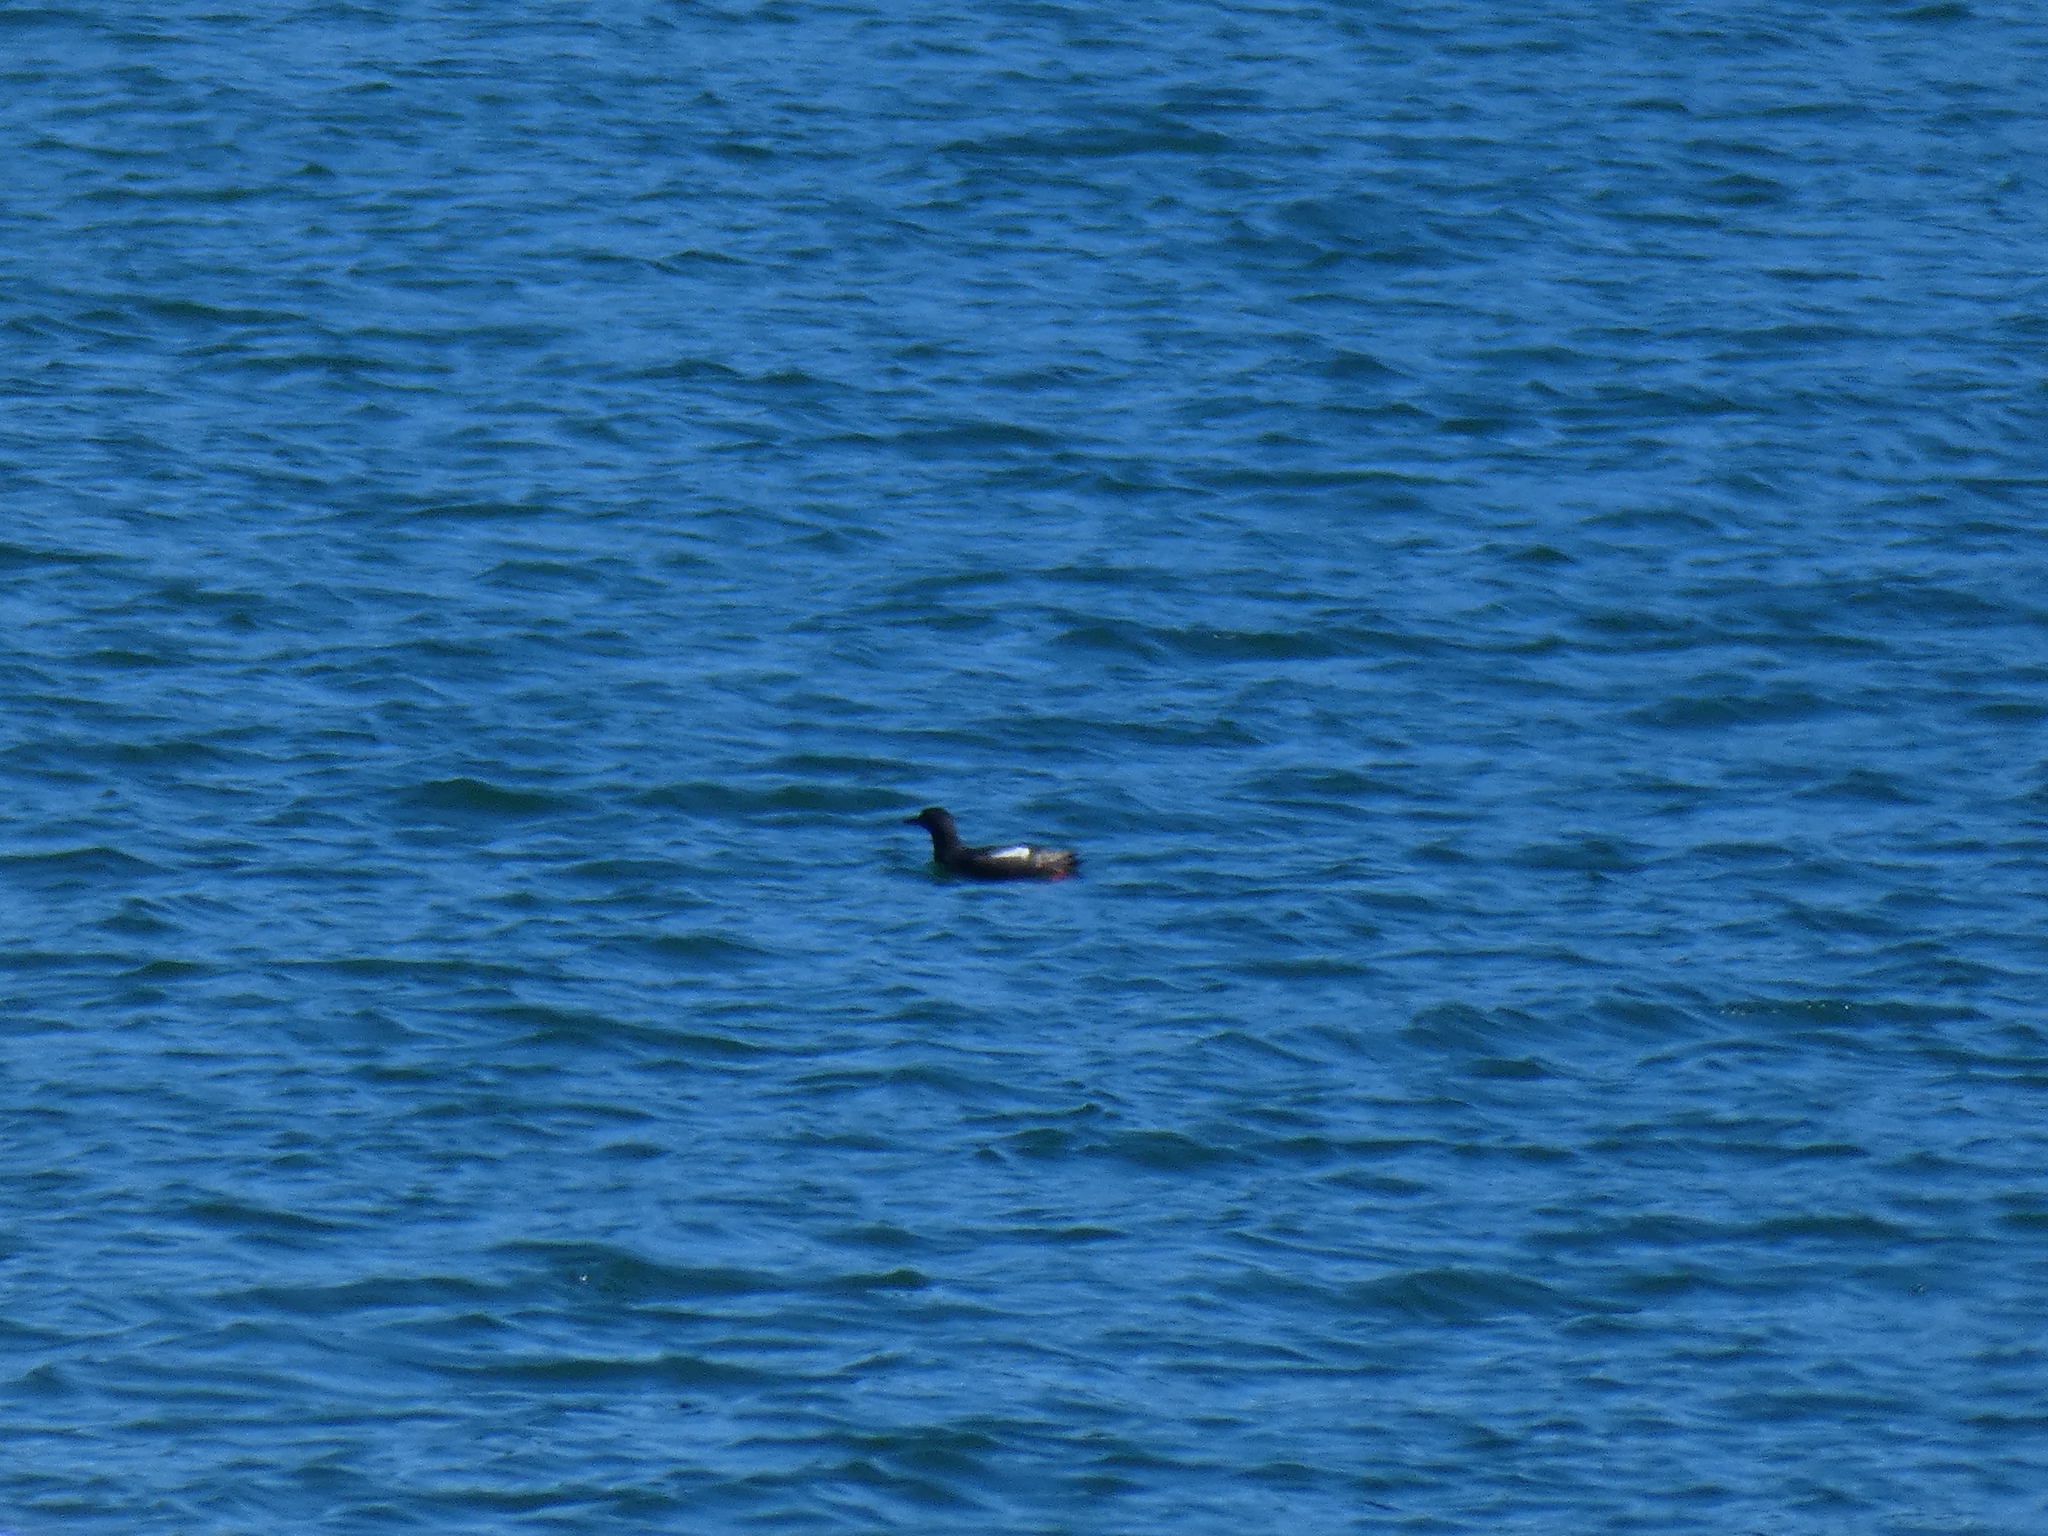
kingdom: Animalia
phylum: Chordata
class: Aves
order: Charadriiformes
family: Alcidae
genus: Cepphus
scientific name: Cepphus columba
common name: Pigeon guillemot
